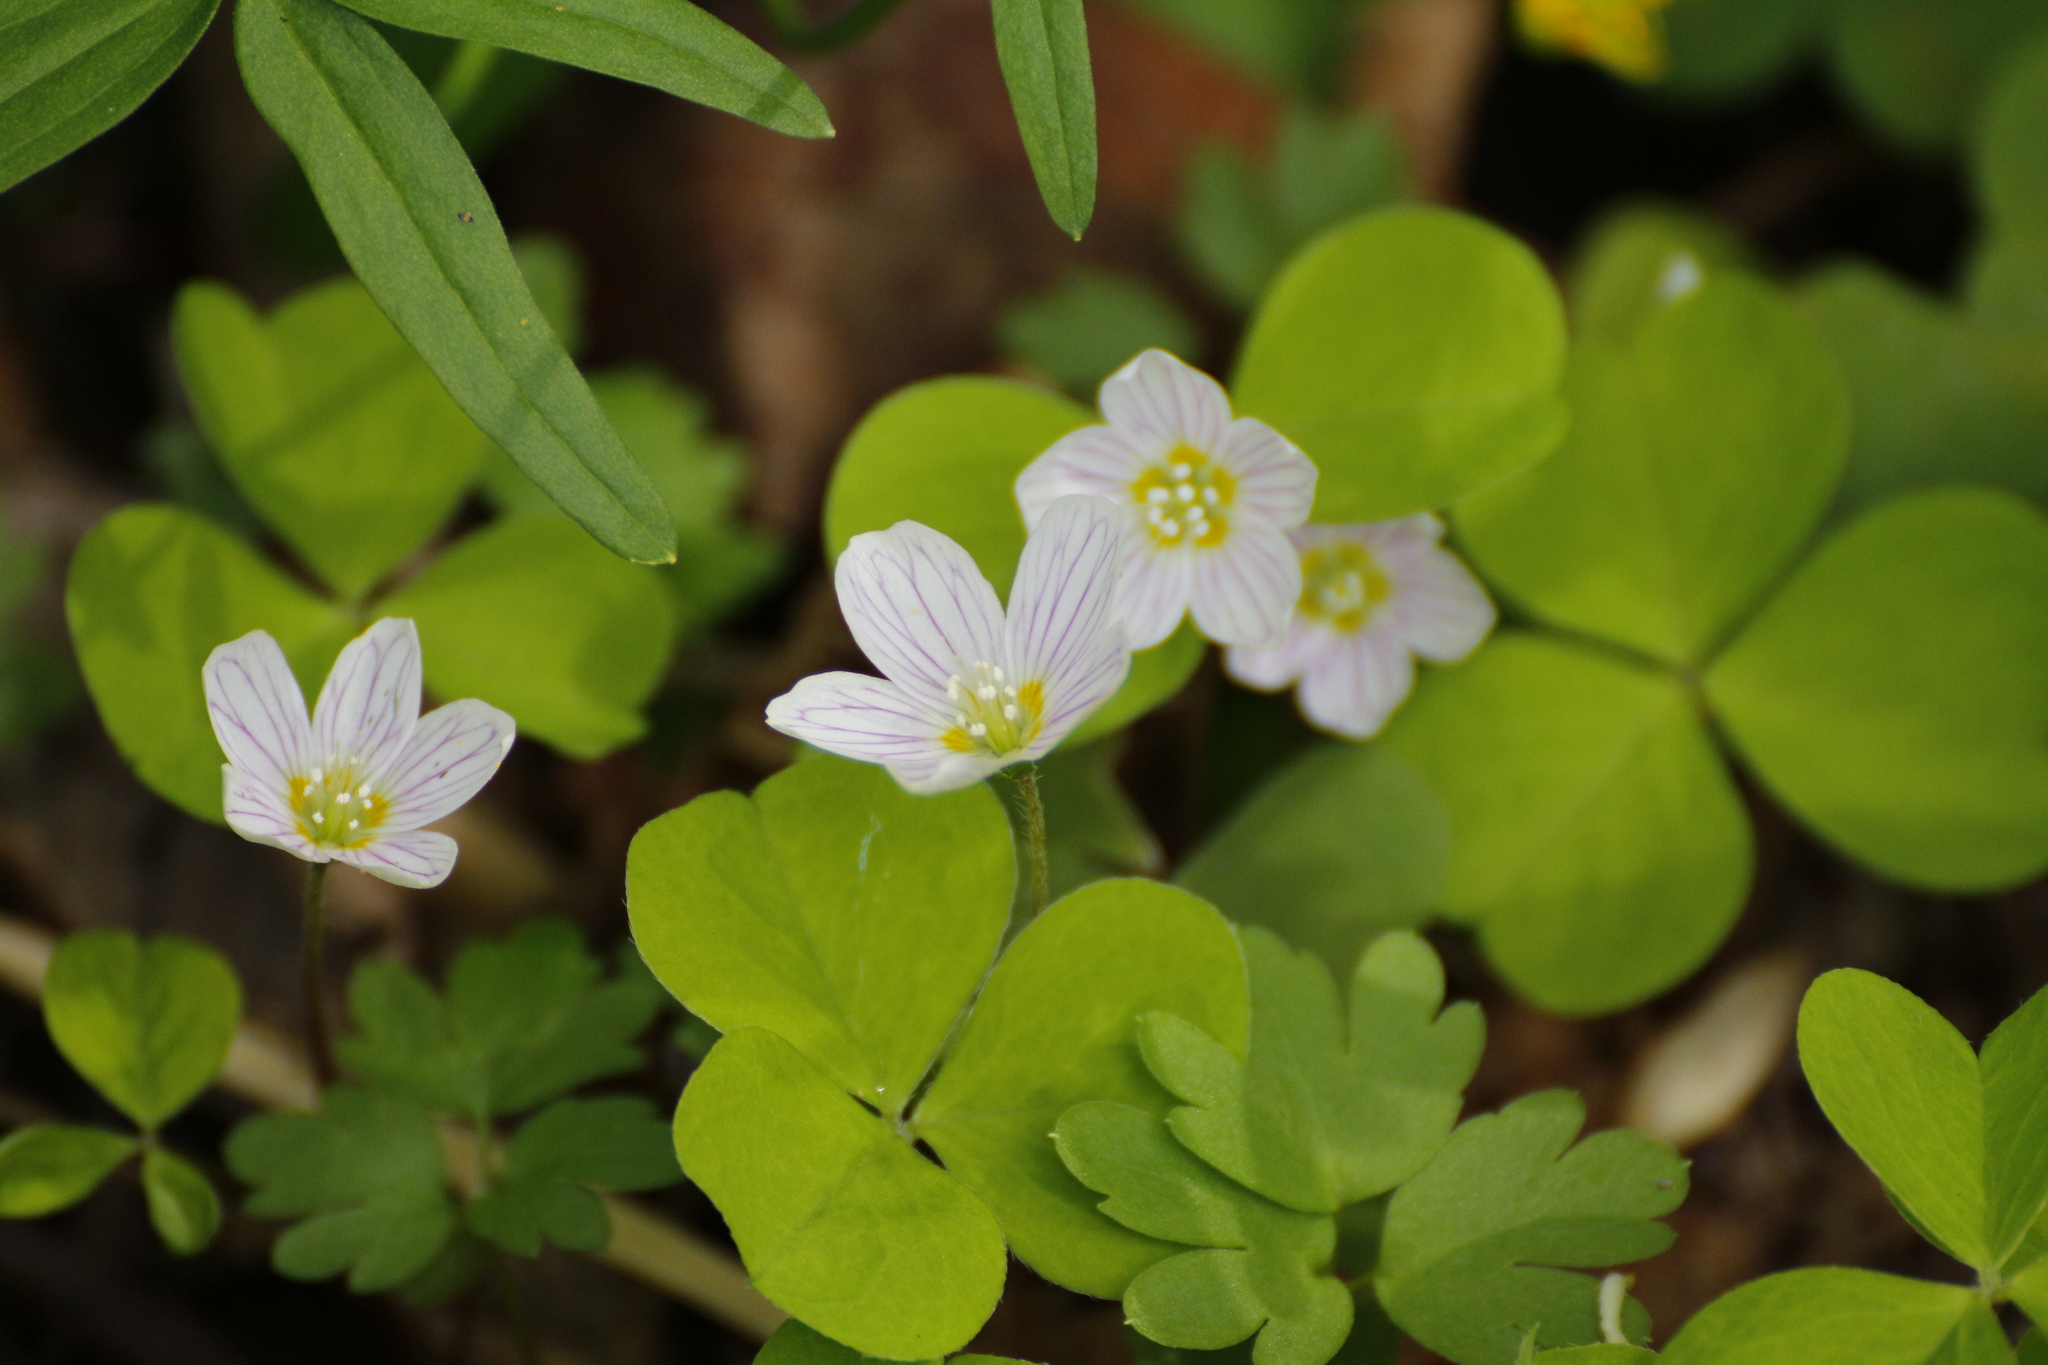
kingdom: Plantae
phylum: Tracheophyta
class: Magnoliopsida
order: Oxalidales
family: Oxalidaceae
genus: Oxalis
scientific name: Oxalis acetosella
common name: Wood-sorrel
